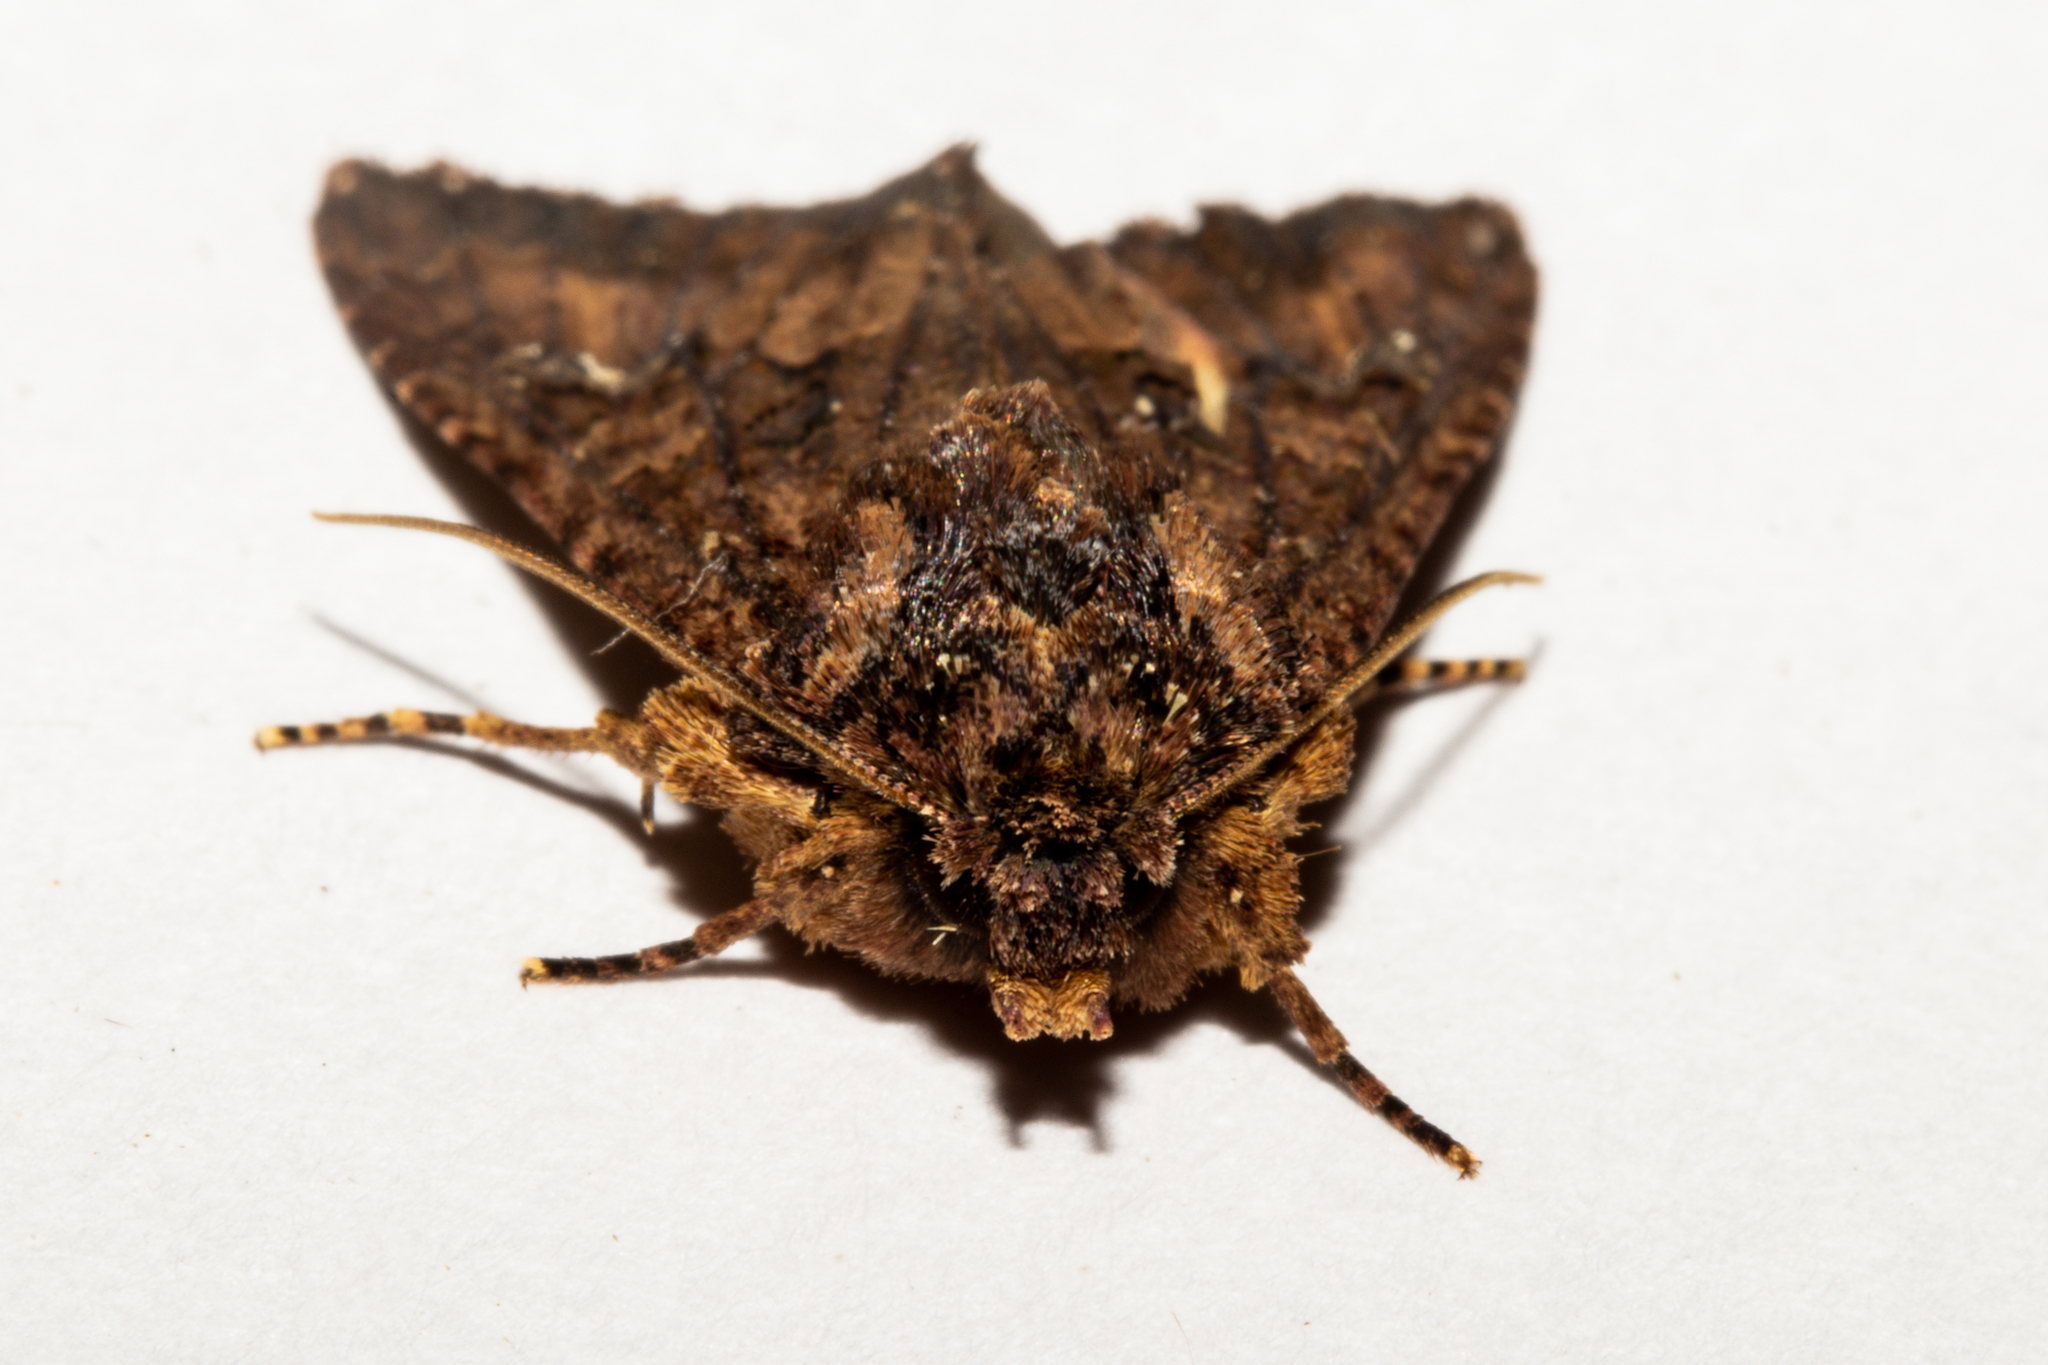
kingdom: Animalia
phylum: Arthropoda
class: Insecta
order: Lepidoptera
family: Noctuidae
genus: Meterana
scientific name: Meterana ochthistis
